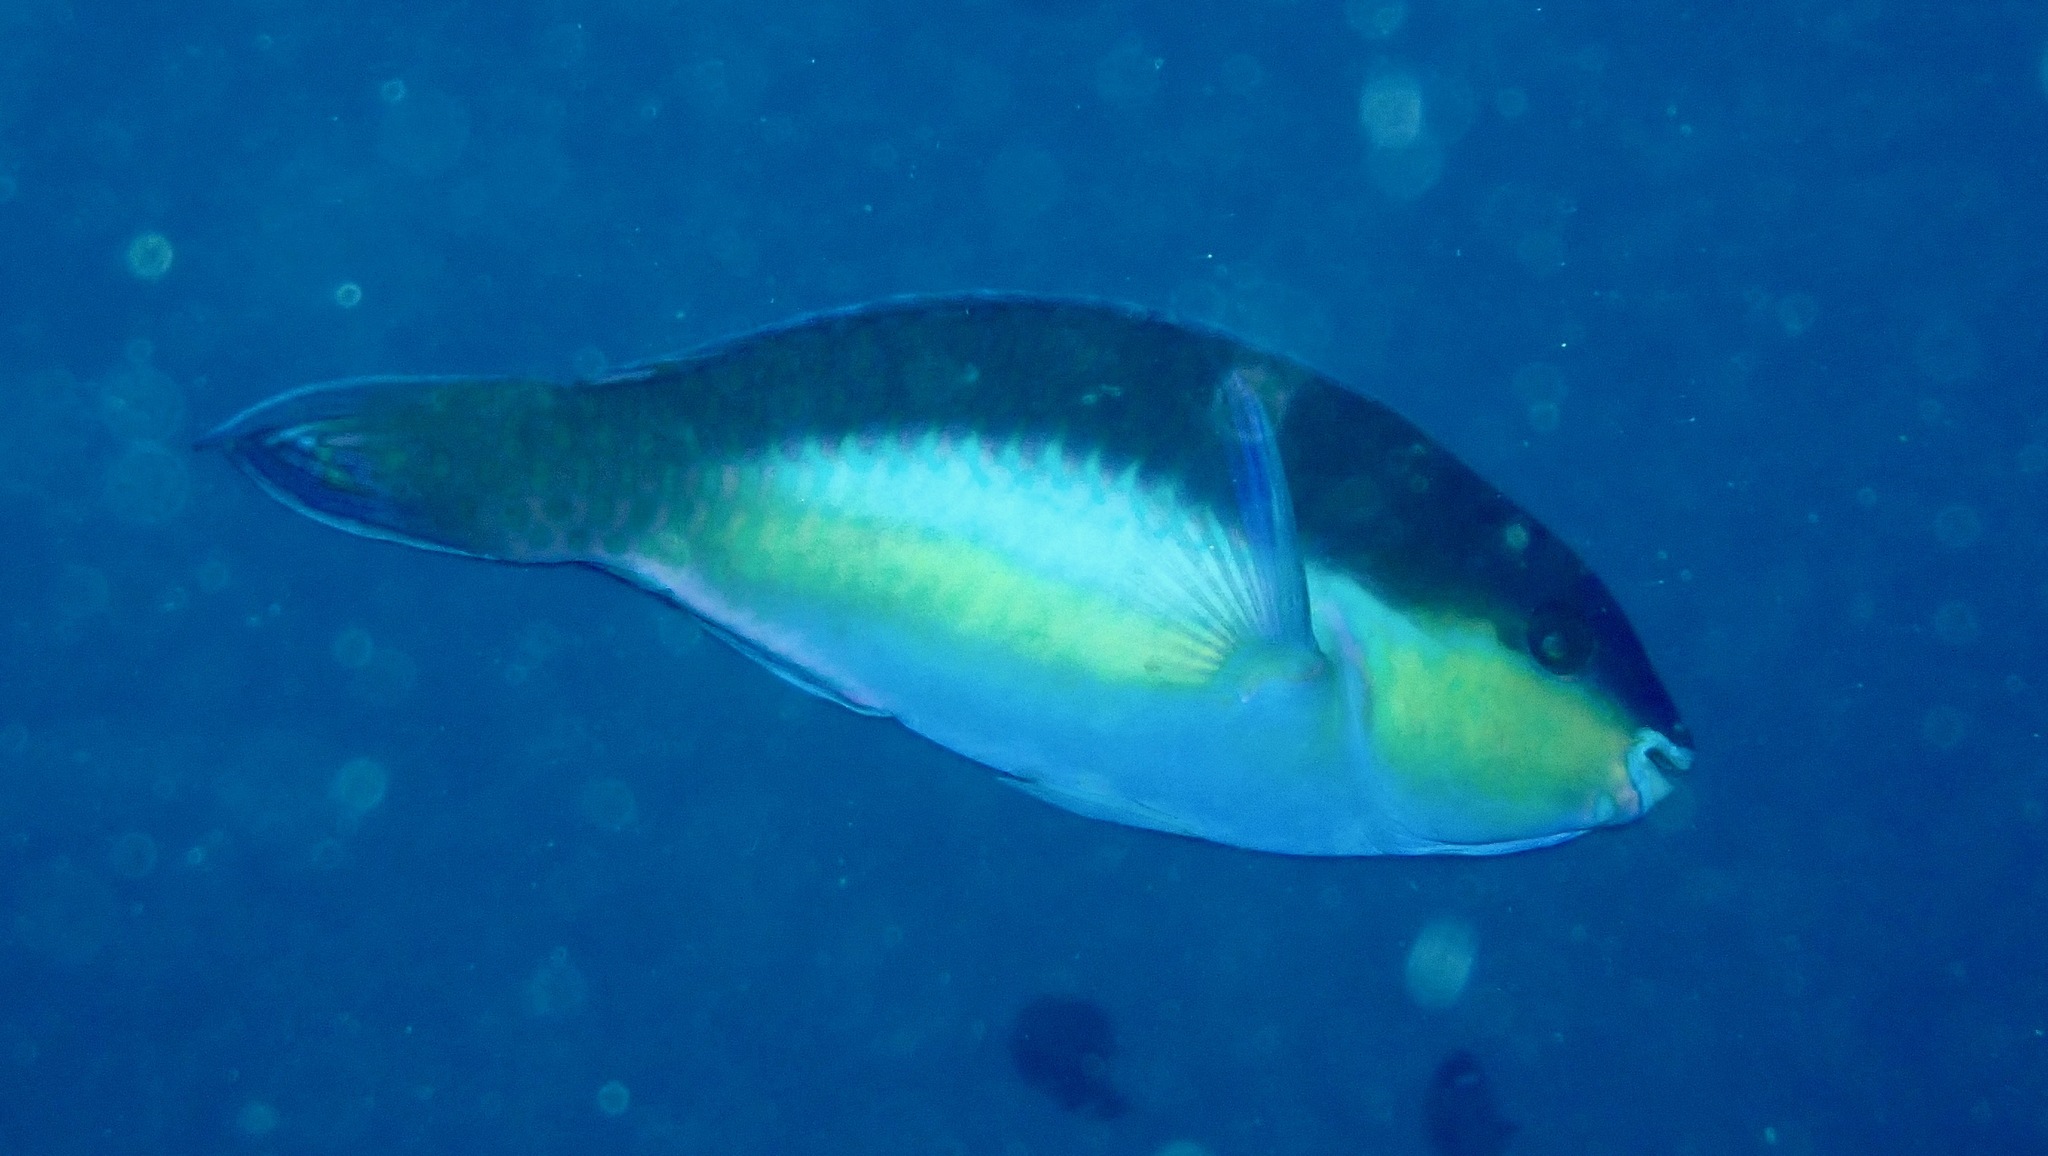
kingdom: Animalia
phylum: Chordata
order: Perciformes
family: Scaridae
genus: Scarus
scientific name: Scarus chameleon
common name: Chameleon parrotfish
